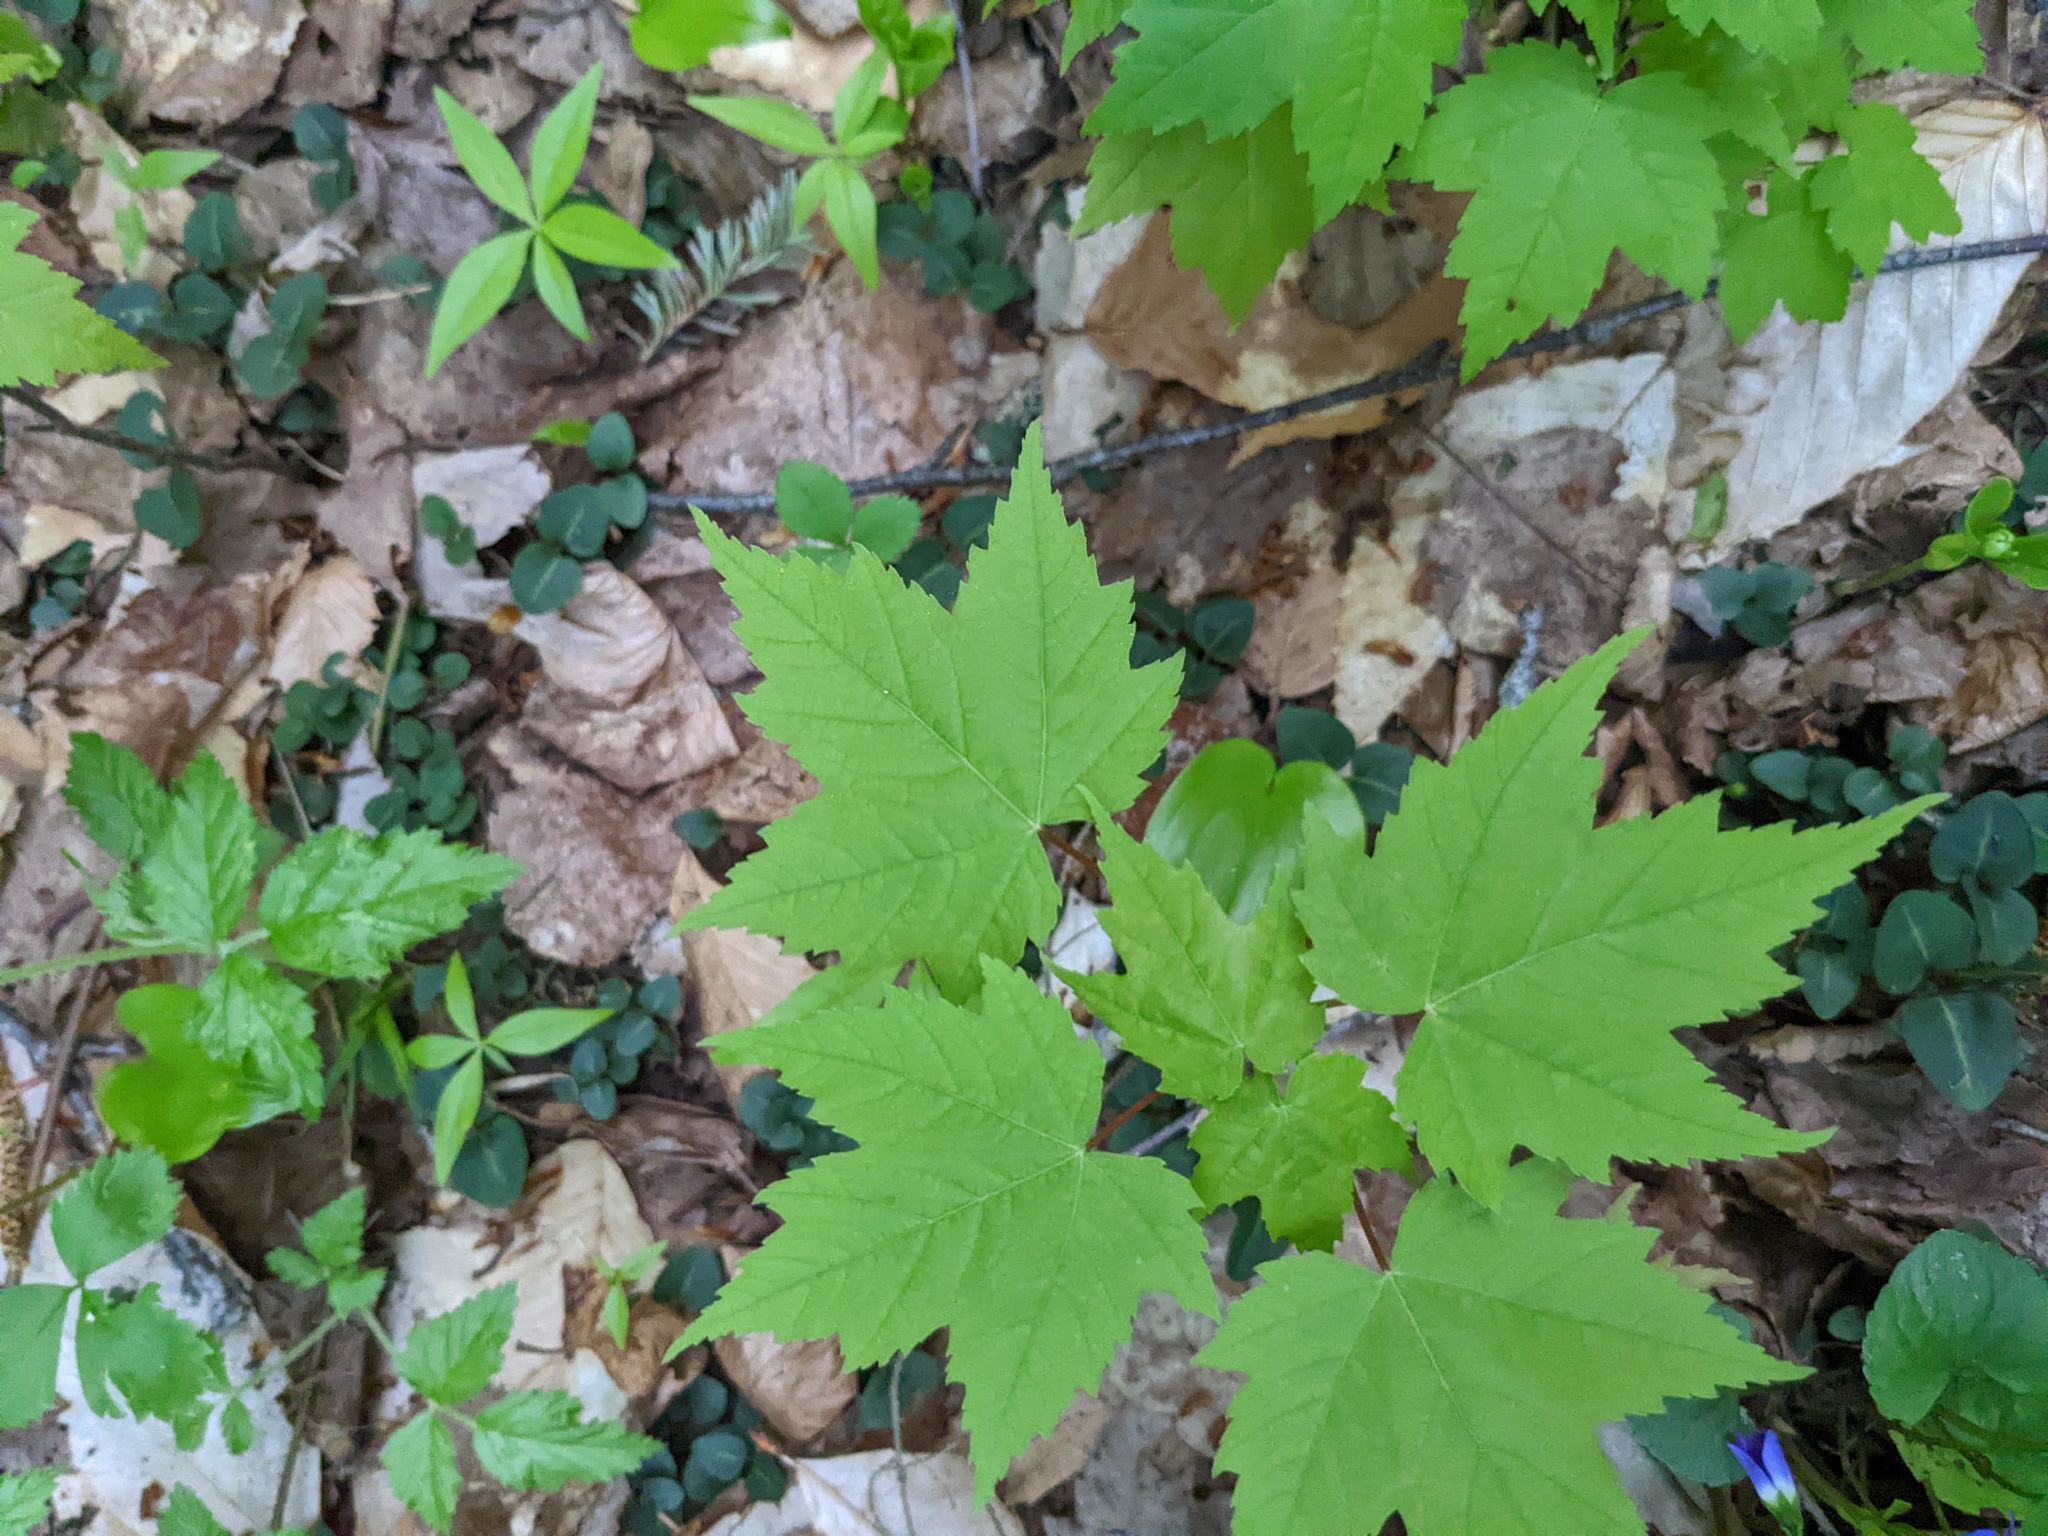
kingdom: Plantae
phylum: Tracheophyta
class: Magnoliopsida
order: Sapindales
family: Sapindaceae
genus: Acer
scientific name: Acer rubrum
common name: Red maple
